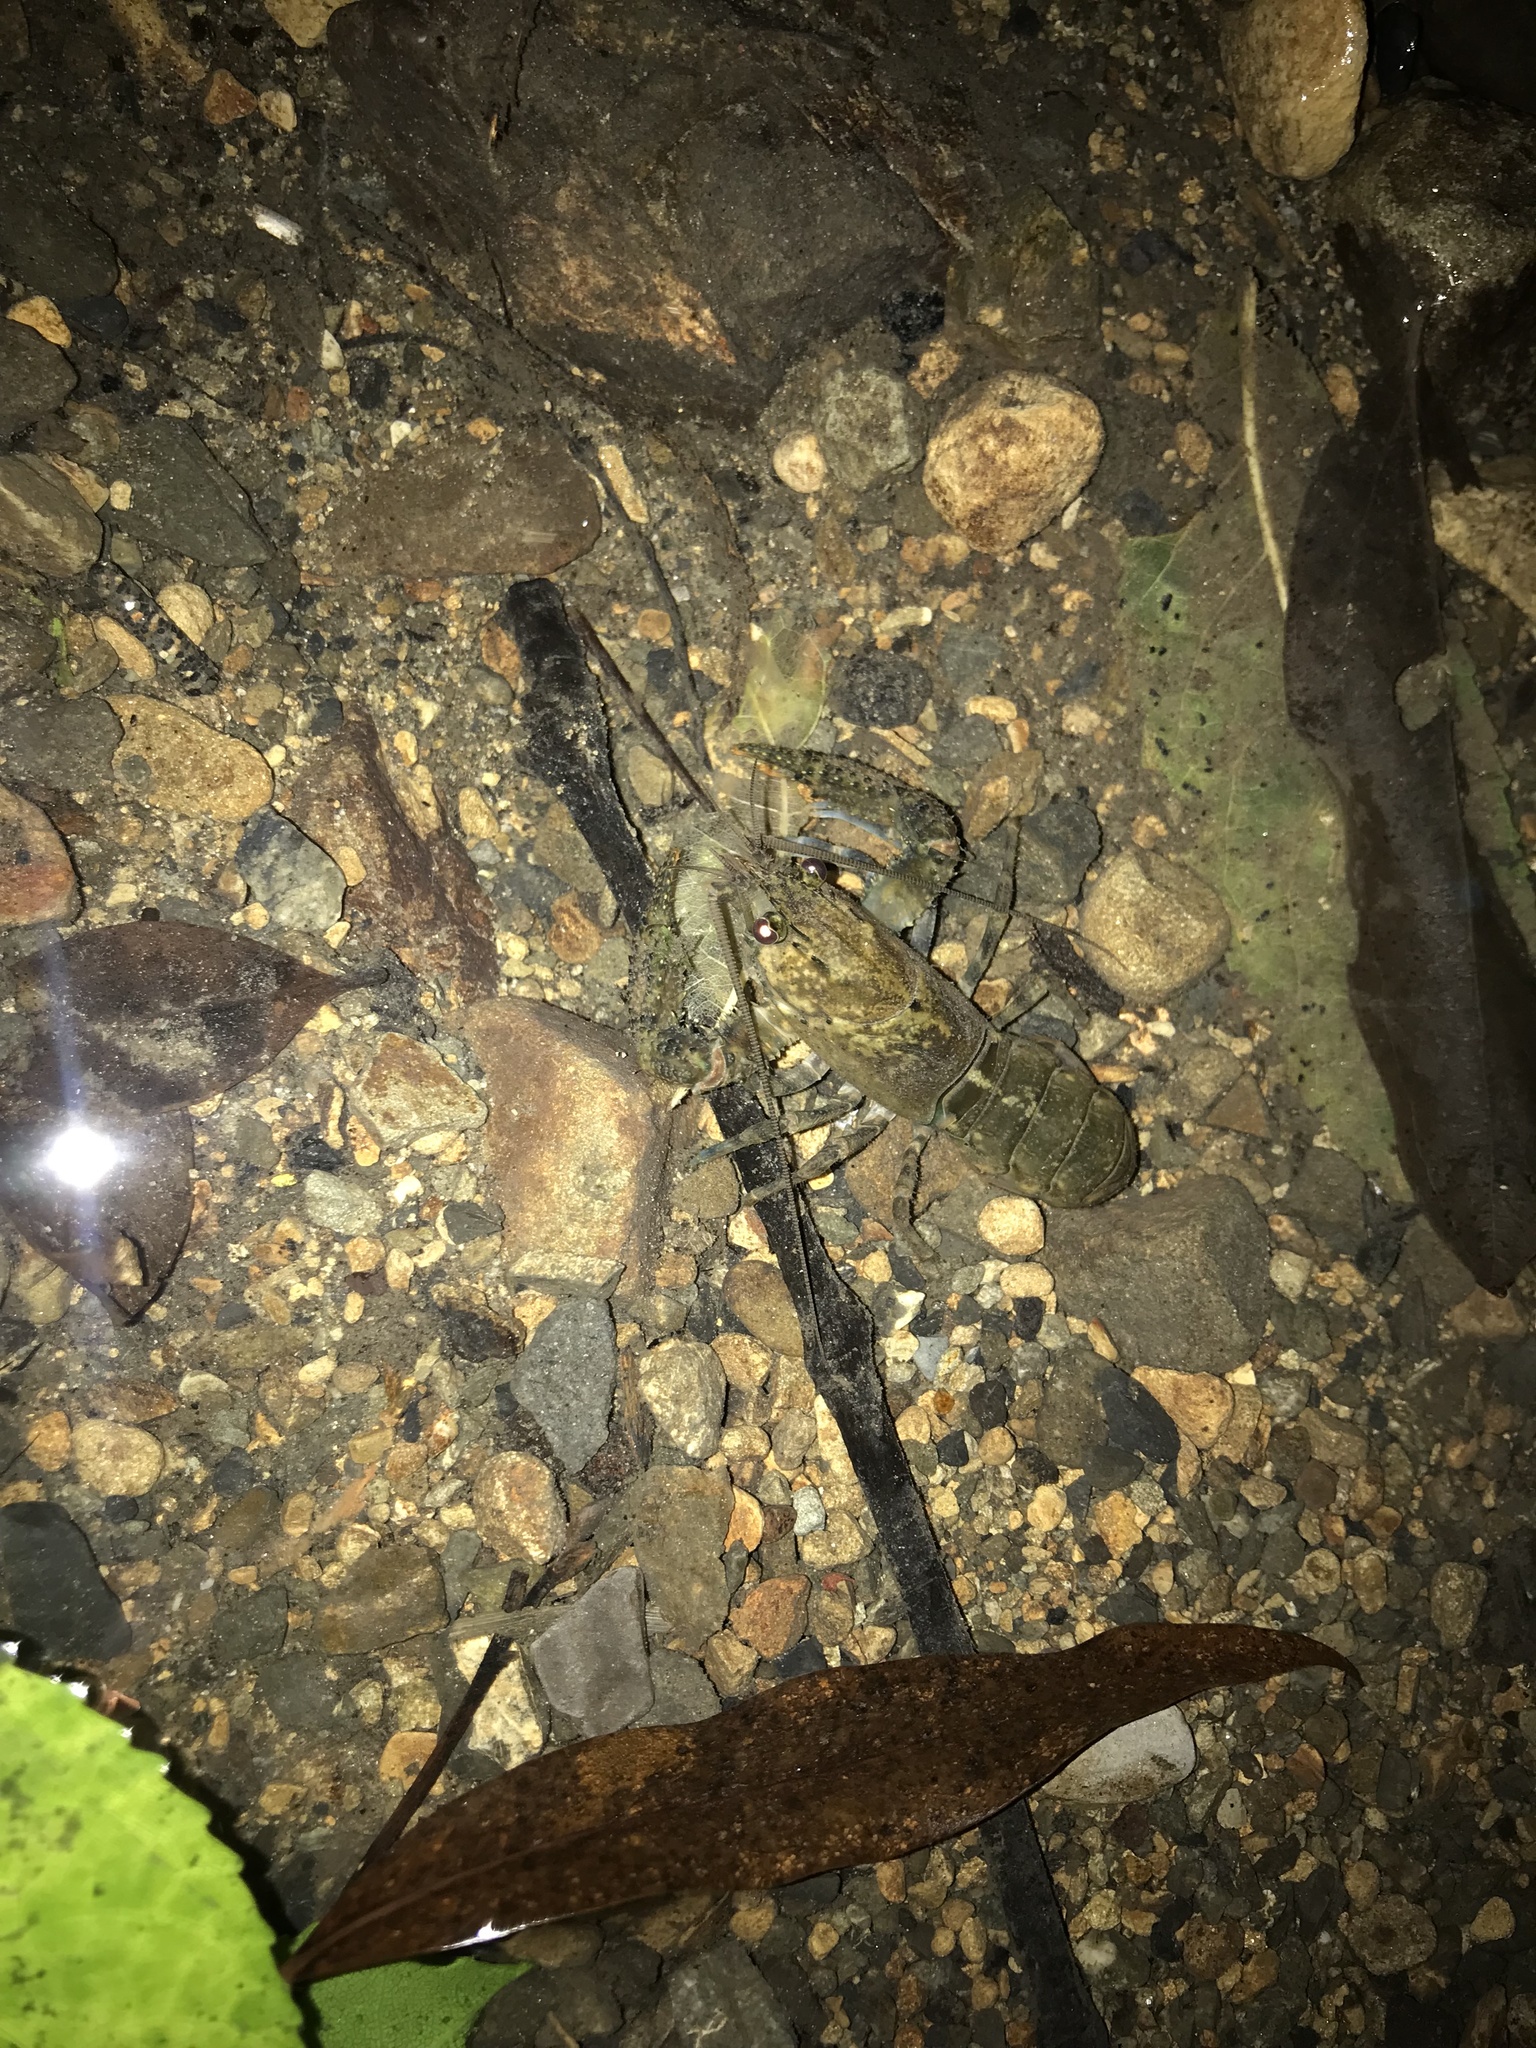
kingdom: Animalia
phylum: Arthropoda
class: Malacostraca
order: Decapoda
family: Parastacidae
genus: Paranephrops
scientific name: Paranephrops planifrons
